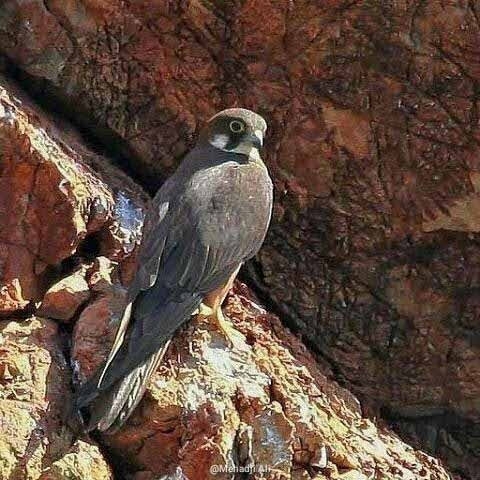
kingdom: Animalia
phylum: Chordata
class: Aves
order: Falconiformes
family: Falconidae
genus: Falco
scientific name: Falco eleonorae
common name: Eleonora's falcon
